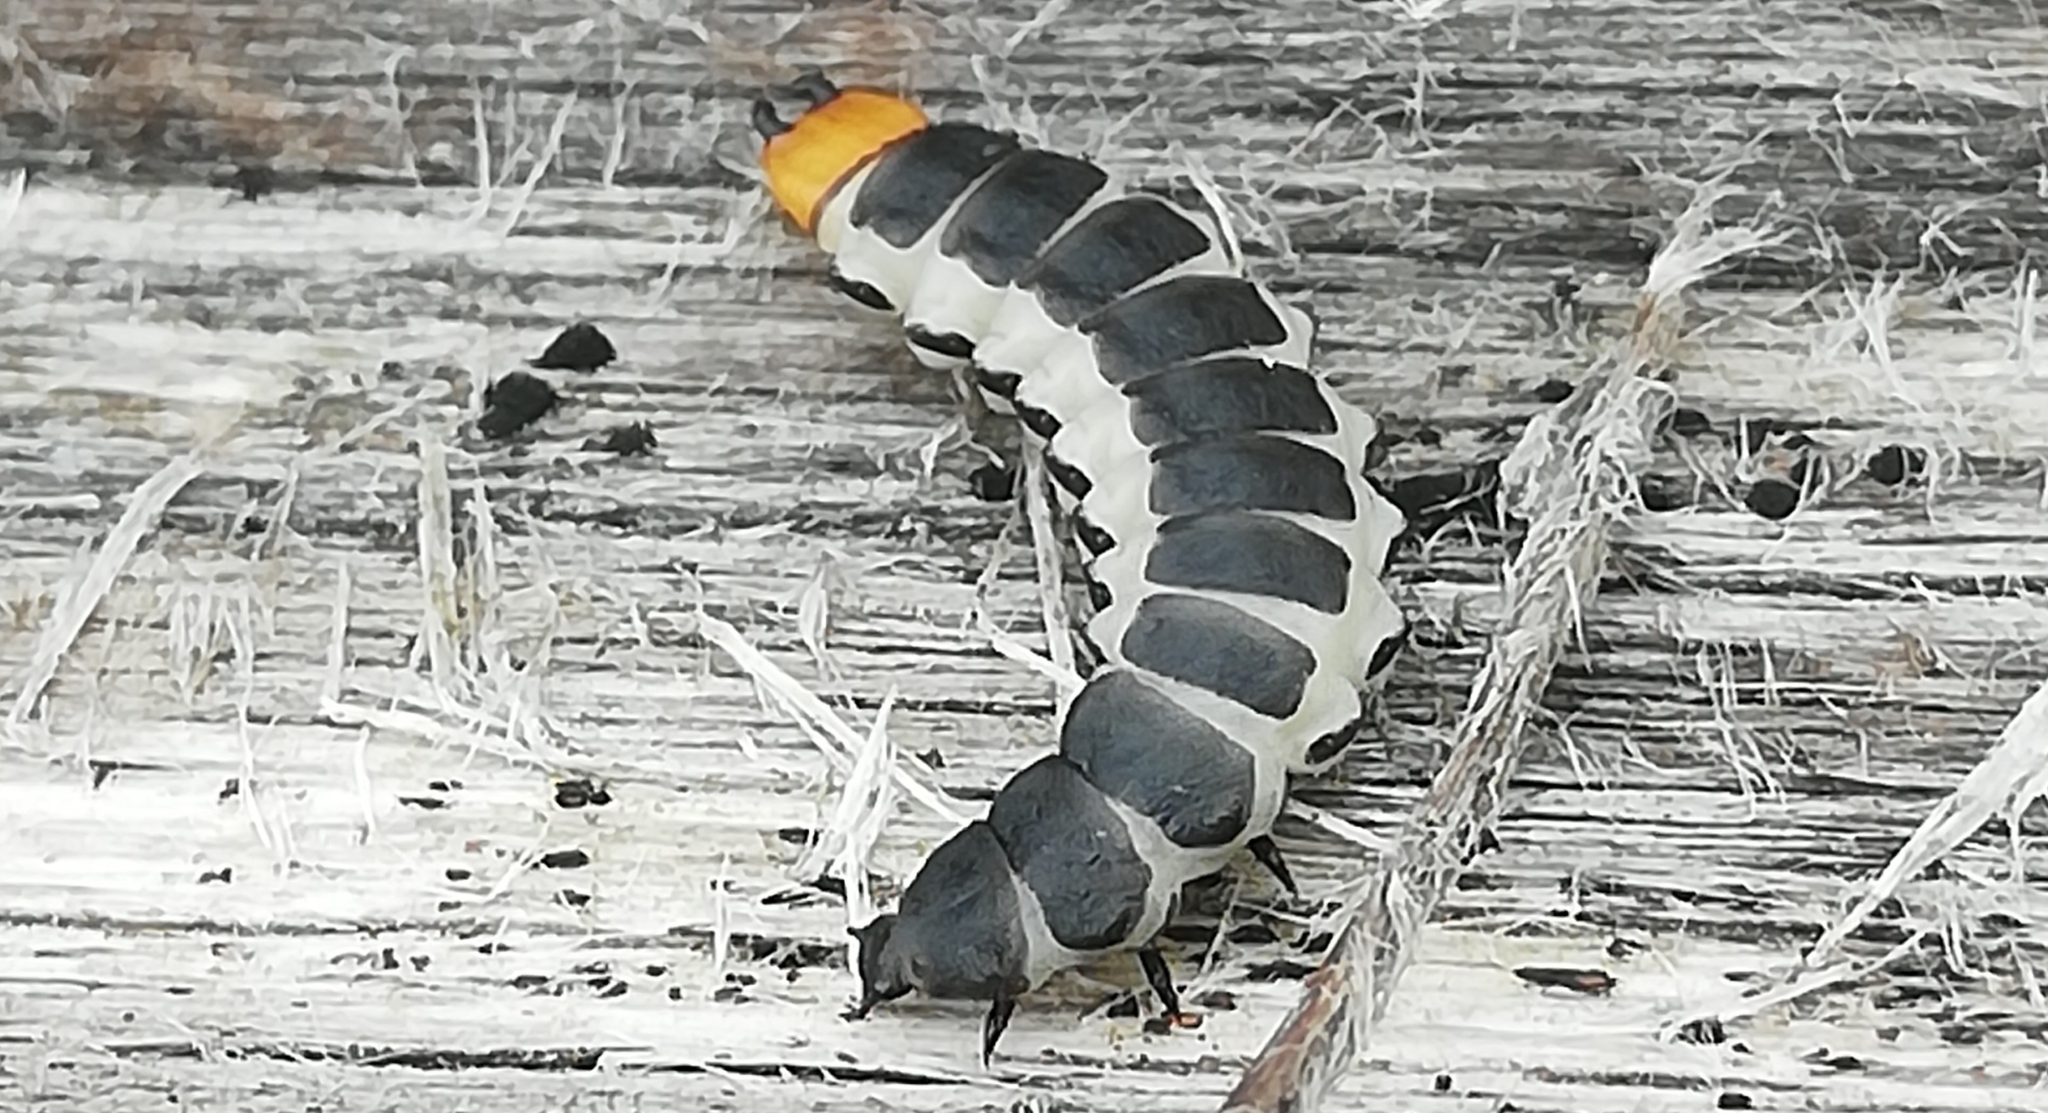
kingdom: Animalia
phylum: Arthropoda
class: Insecta
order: Coleoptera
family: Lycidae
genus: Lygistopterus
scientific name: Lygistopterus sanguineus
